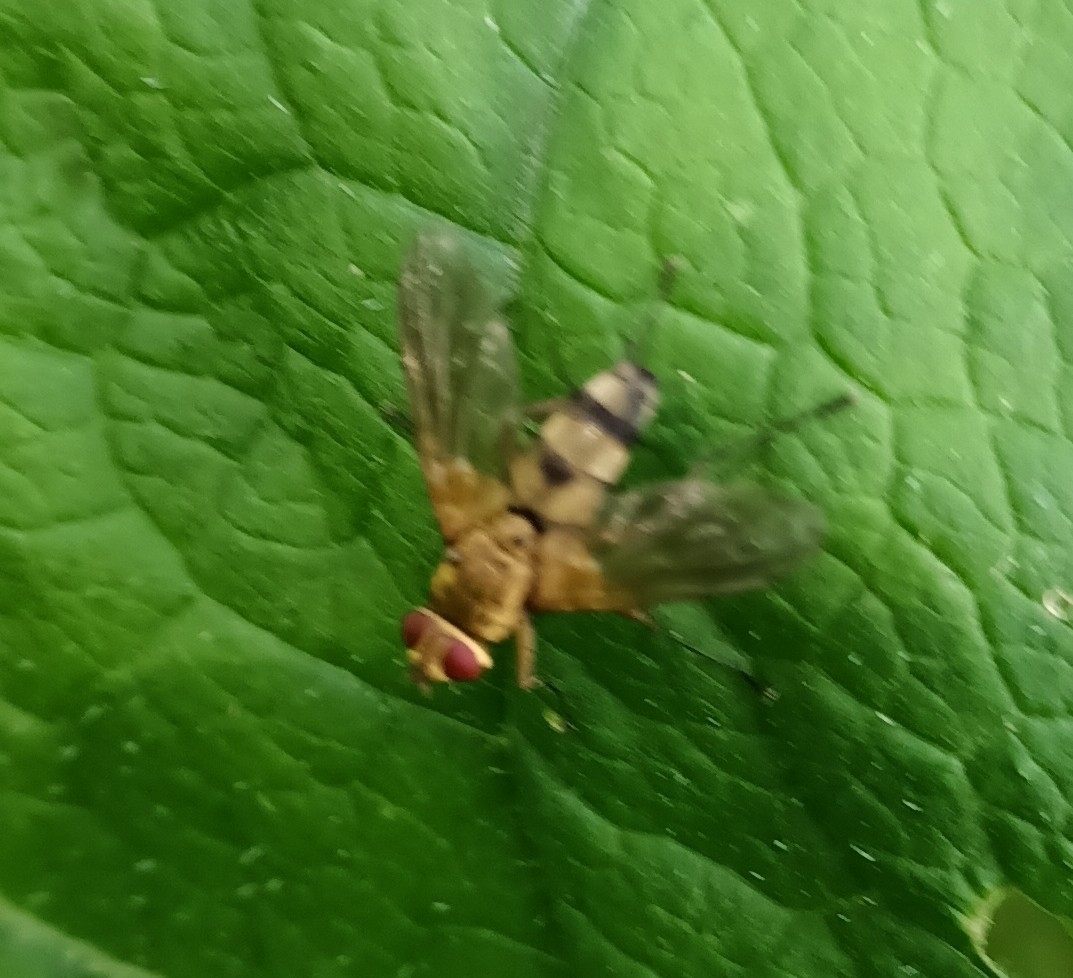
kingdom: Animalia
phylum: Arthropoda
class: Insecta
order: Diptera
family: Tachinidae
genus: Dexiosoma
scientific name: Dexiosoma caninum
